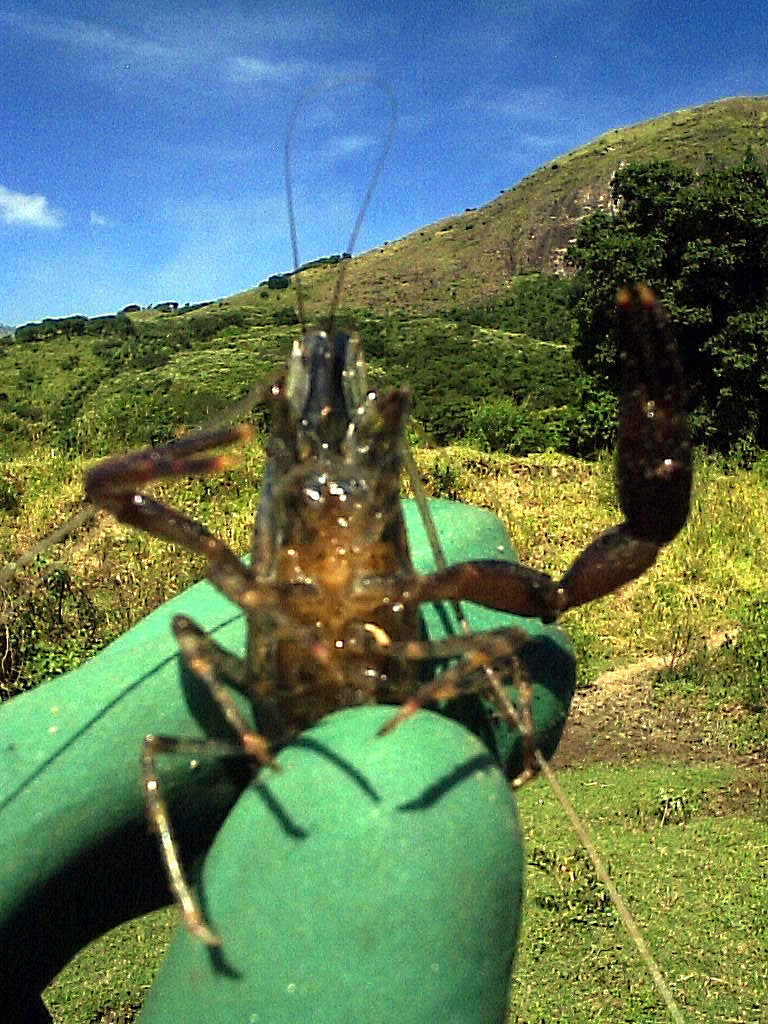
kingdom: Animalia
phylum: Arthropoda
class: Malacostraca
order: Decapoda
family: Palaemonidae
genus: Macrobrachium
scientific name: Macrobrachium olfersii
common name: Bristled river shrimp
